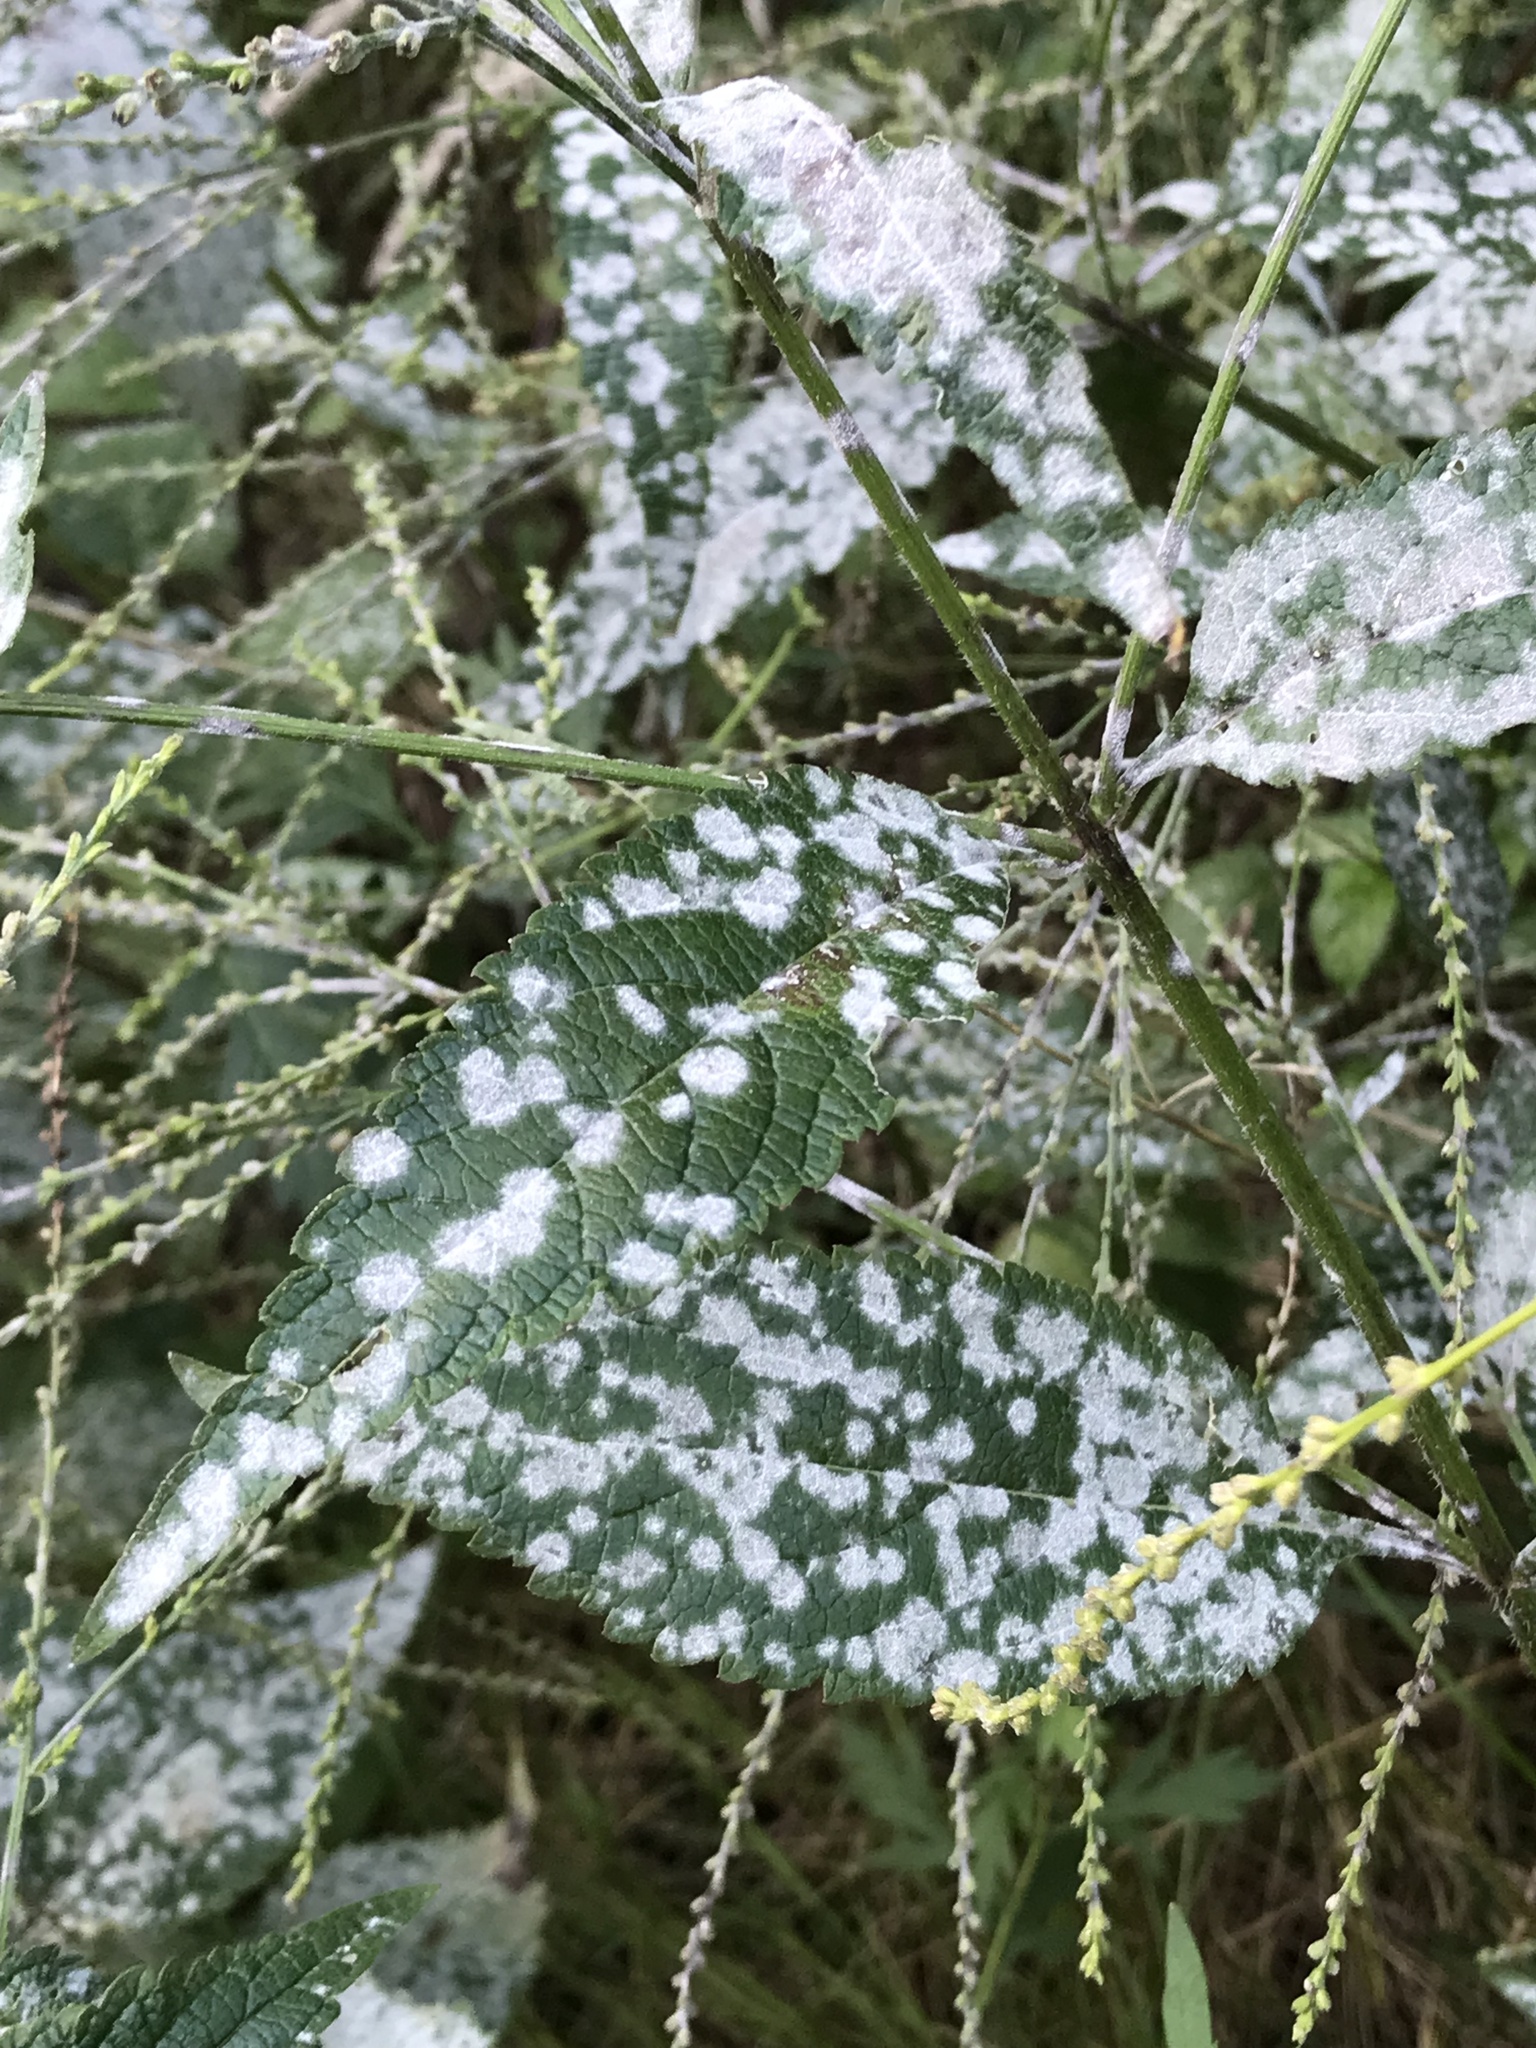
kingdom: Plantae
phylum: Tracheophyta
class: Magnoliopsida
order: Lamiales
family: Verbenaceae
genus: Verbena
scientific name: Verbena urticifolia
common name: Nettle-leaved vervain
